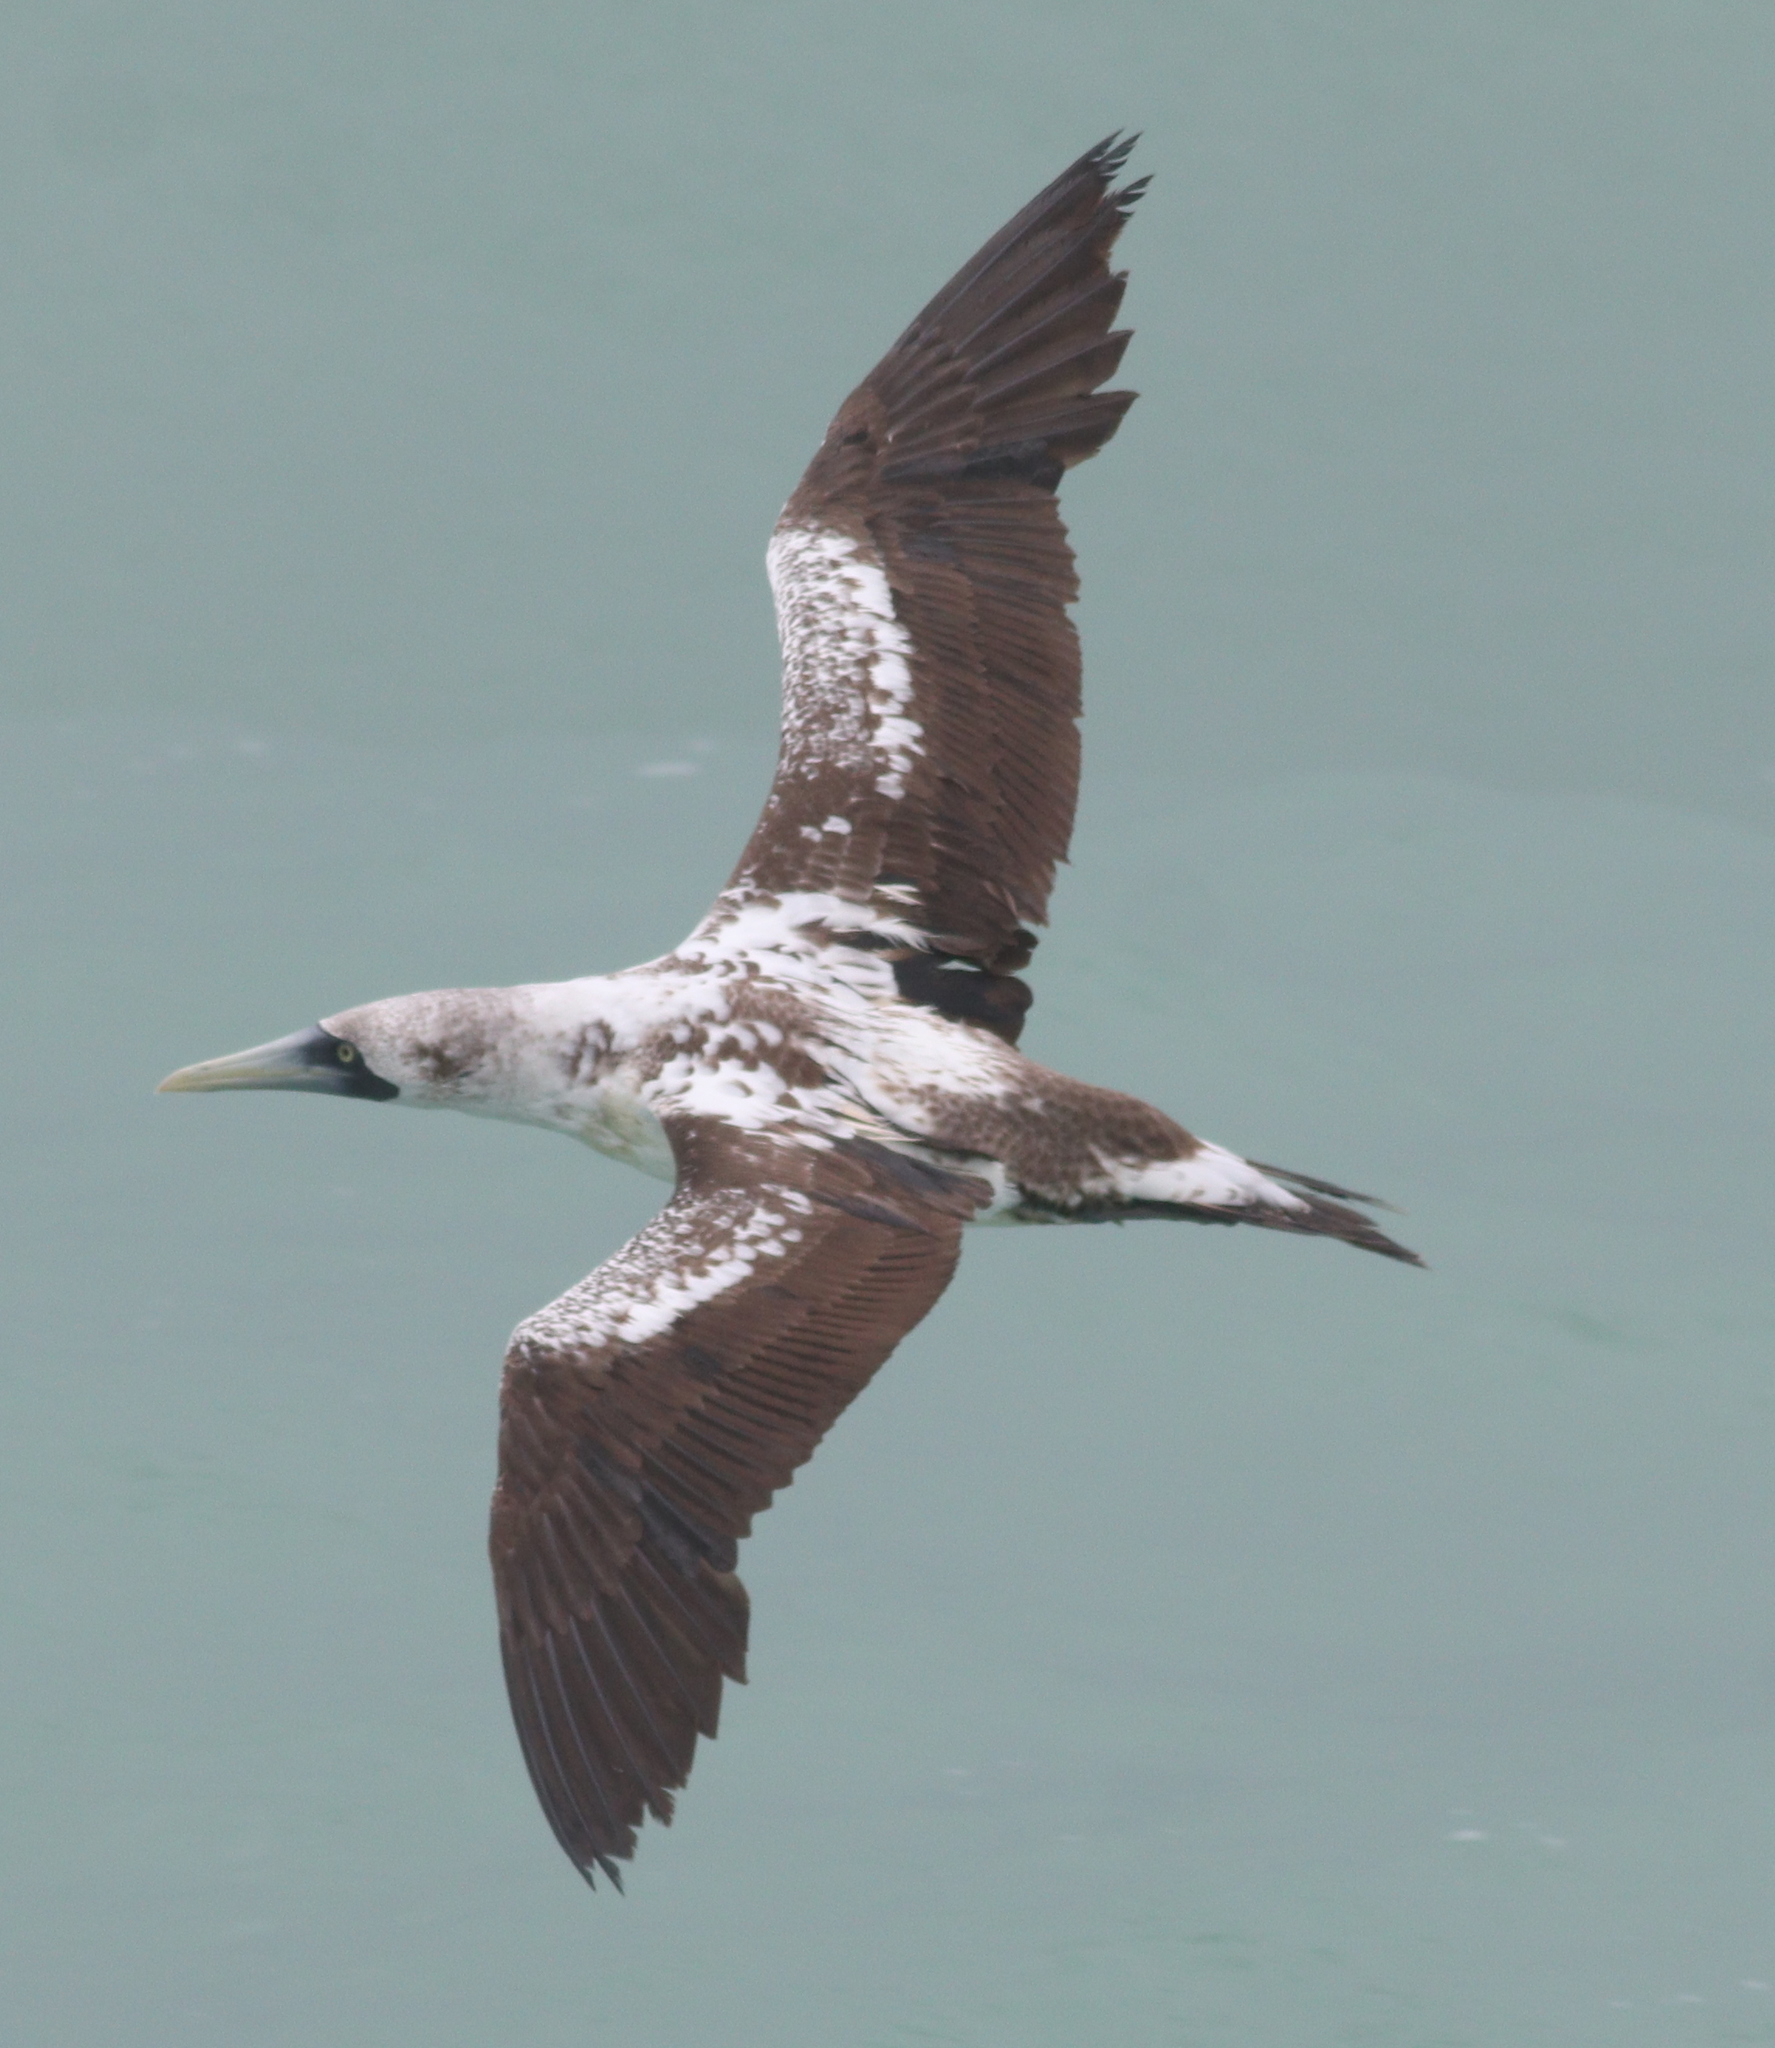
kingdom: Animalia
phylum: Chordata
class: Aves
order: Suliformes
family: Sulidae
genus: Sula
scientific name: Sula dactylatra
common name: Masked booby
